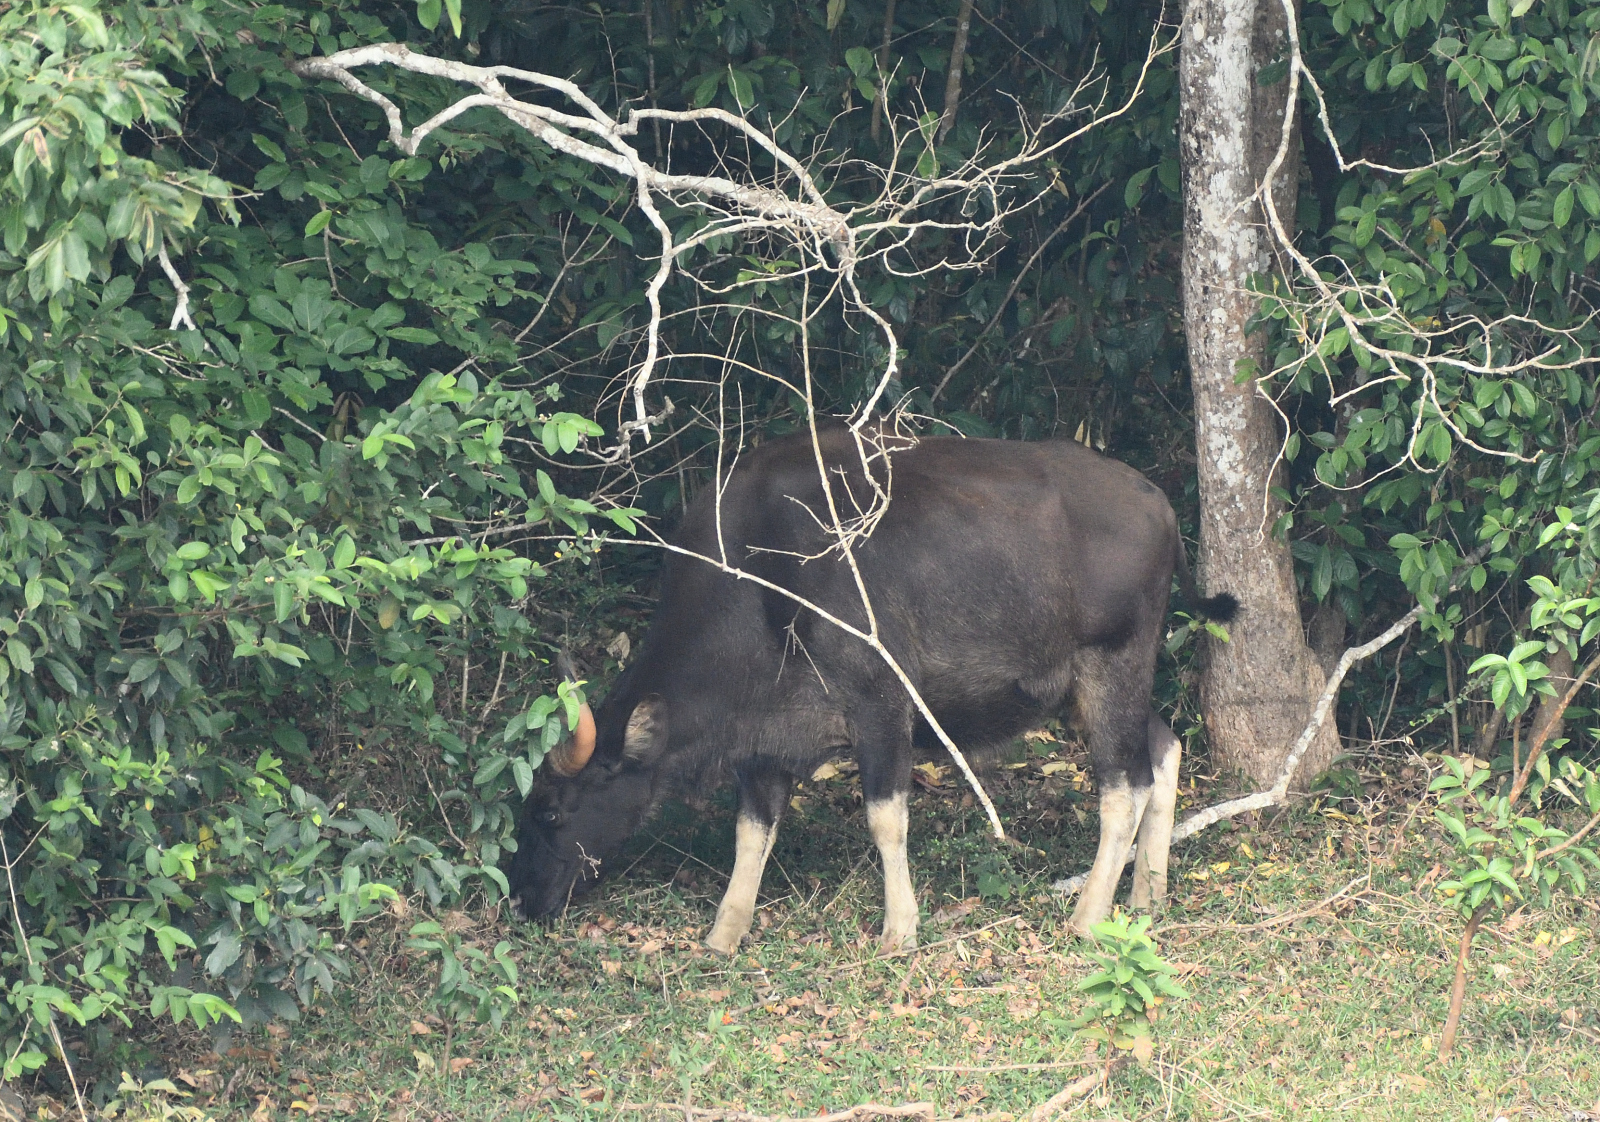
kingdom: Animalia
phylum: Chordata
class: Mammalia
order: Artiodactyla
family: Bovidae
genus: Bos
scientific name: Bos frontalis
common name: Gaur
